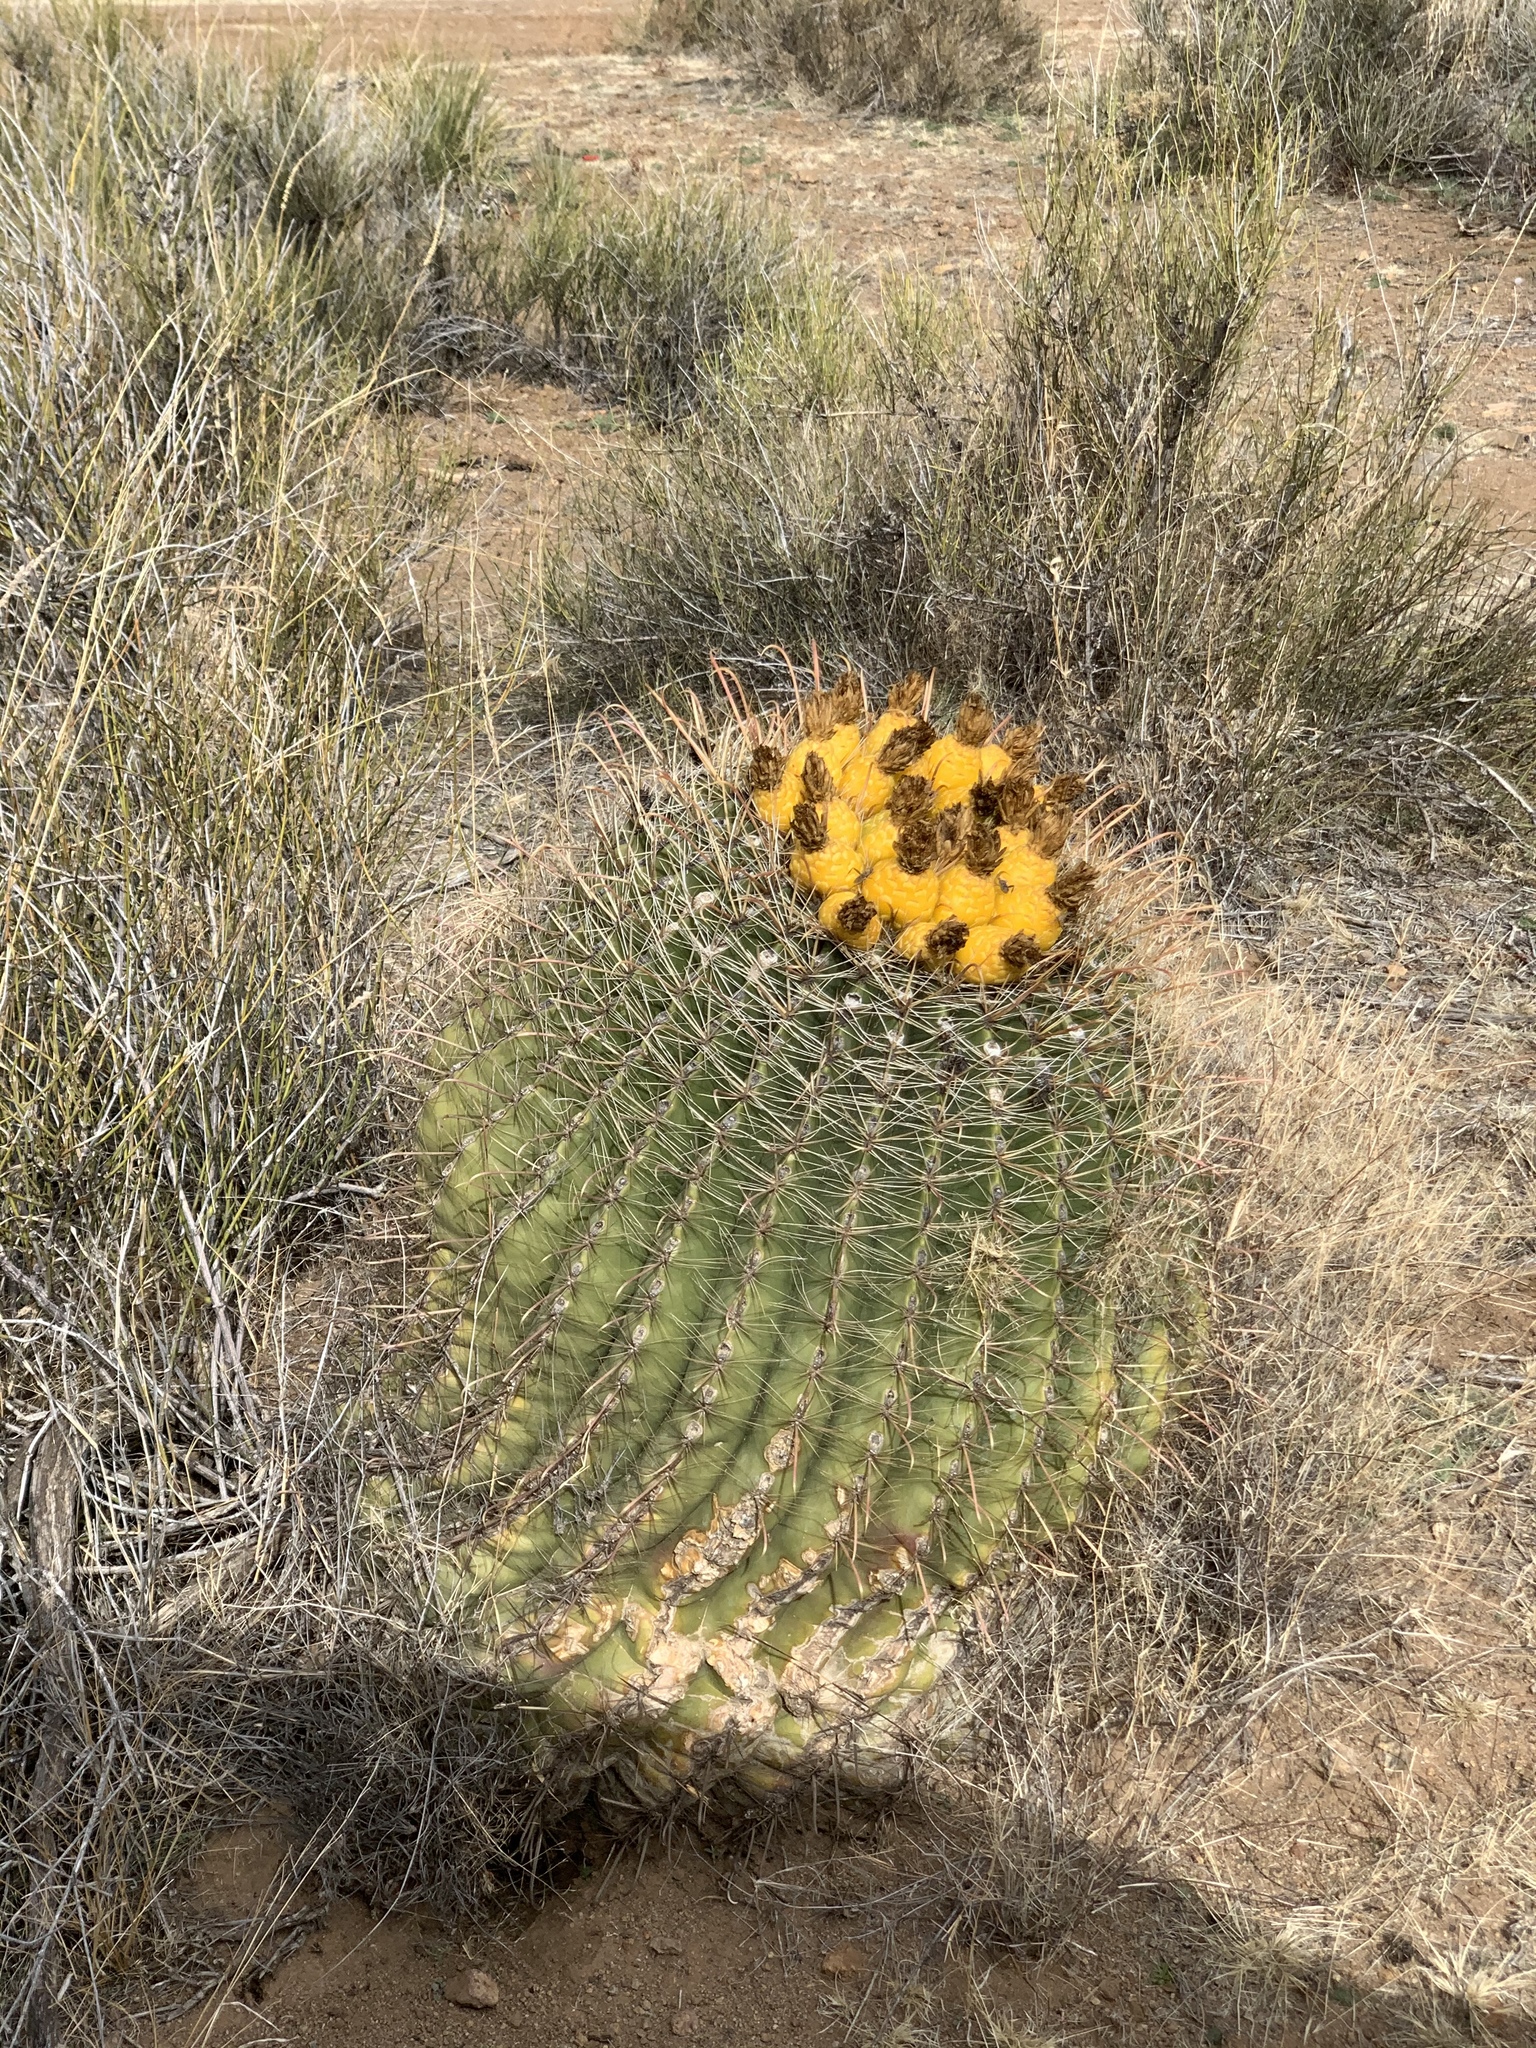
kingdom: Plantae
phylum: Tracheophyta
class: Magnoliopsida
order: Caryophyllales
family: Cactaceae
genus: Ferocactus
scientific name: Ferocactus wislizeni
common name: Candy barrel cactus
